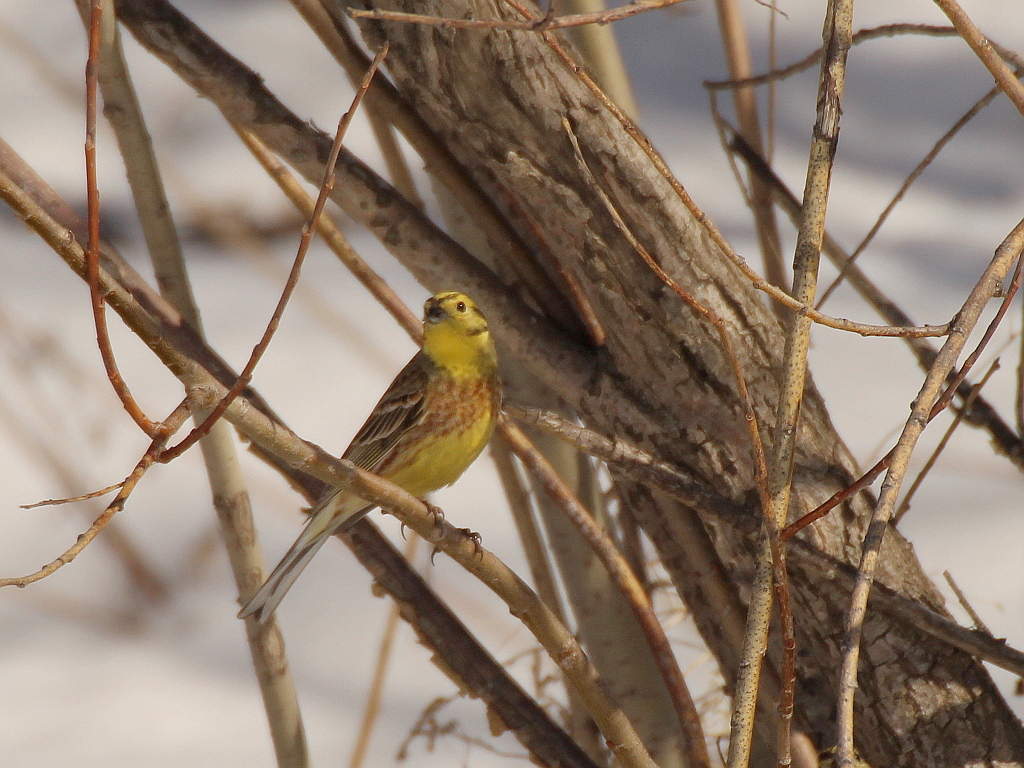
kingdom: Animalia
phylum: Chordata
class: Aves
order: Passeriformes
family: Emberizidae
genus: Emberiza
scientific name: Emberiza citrinella
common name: Yellowhammer
